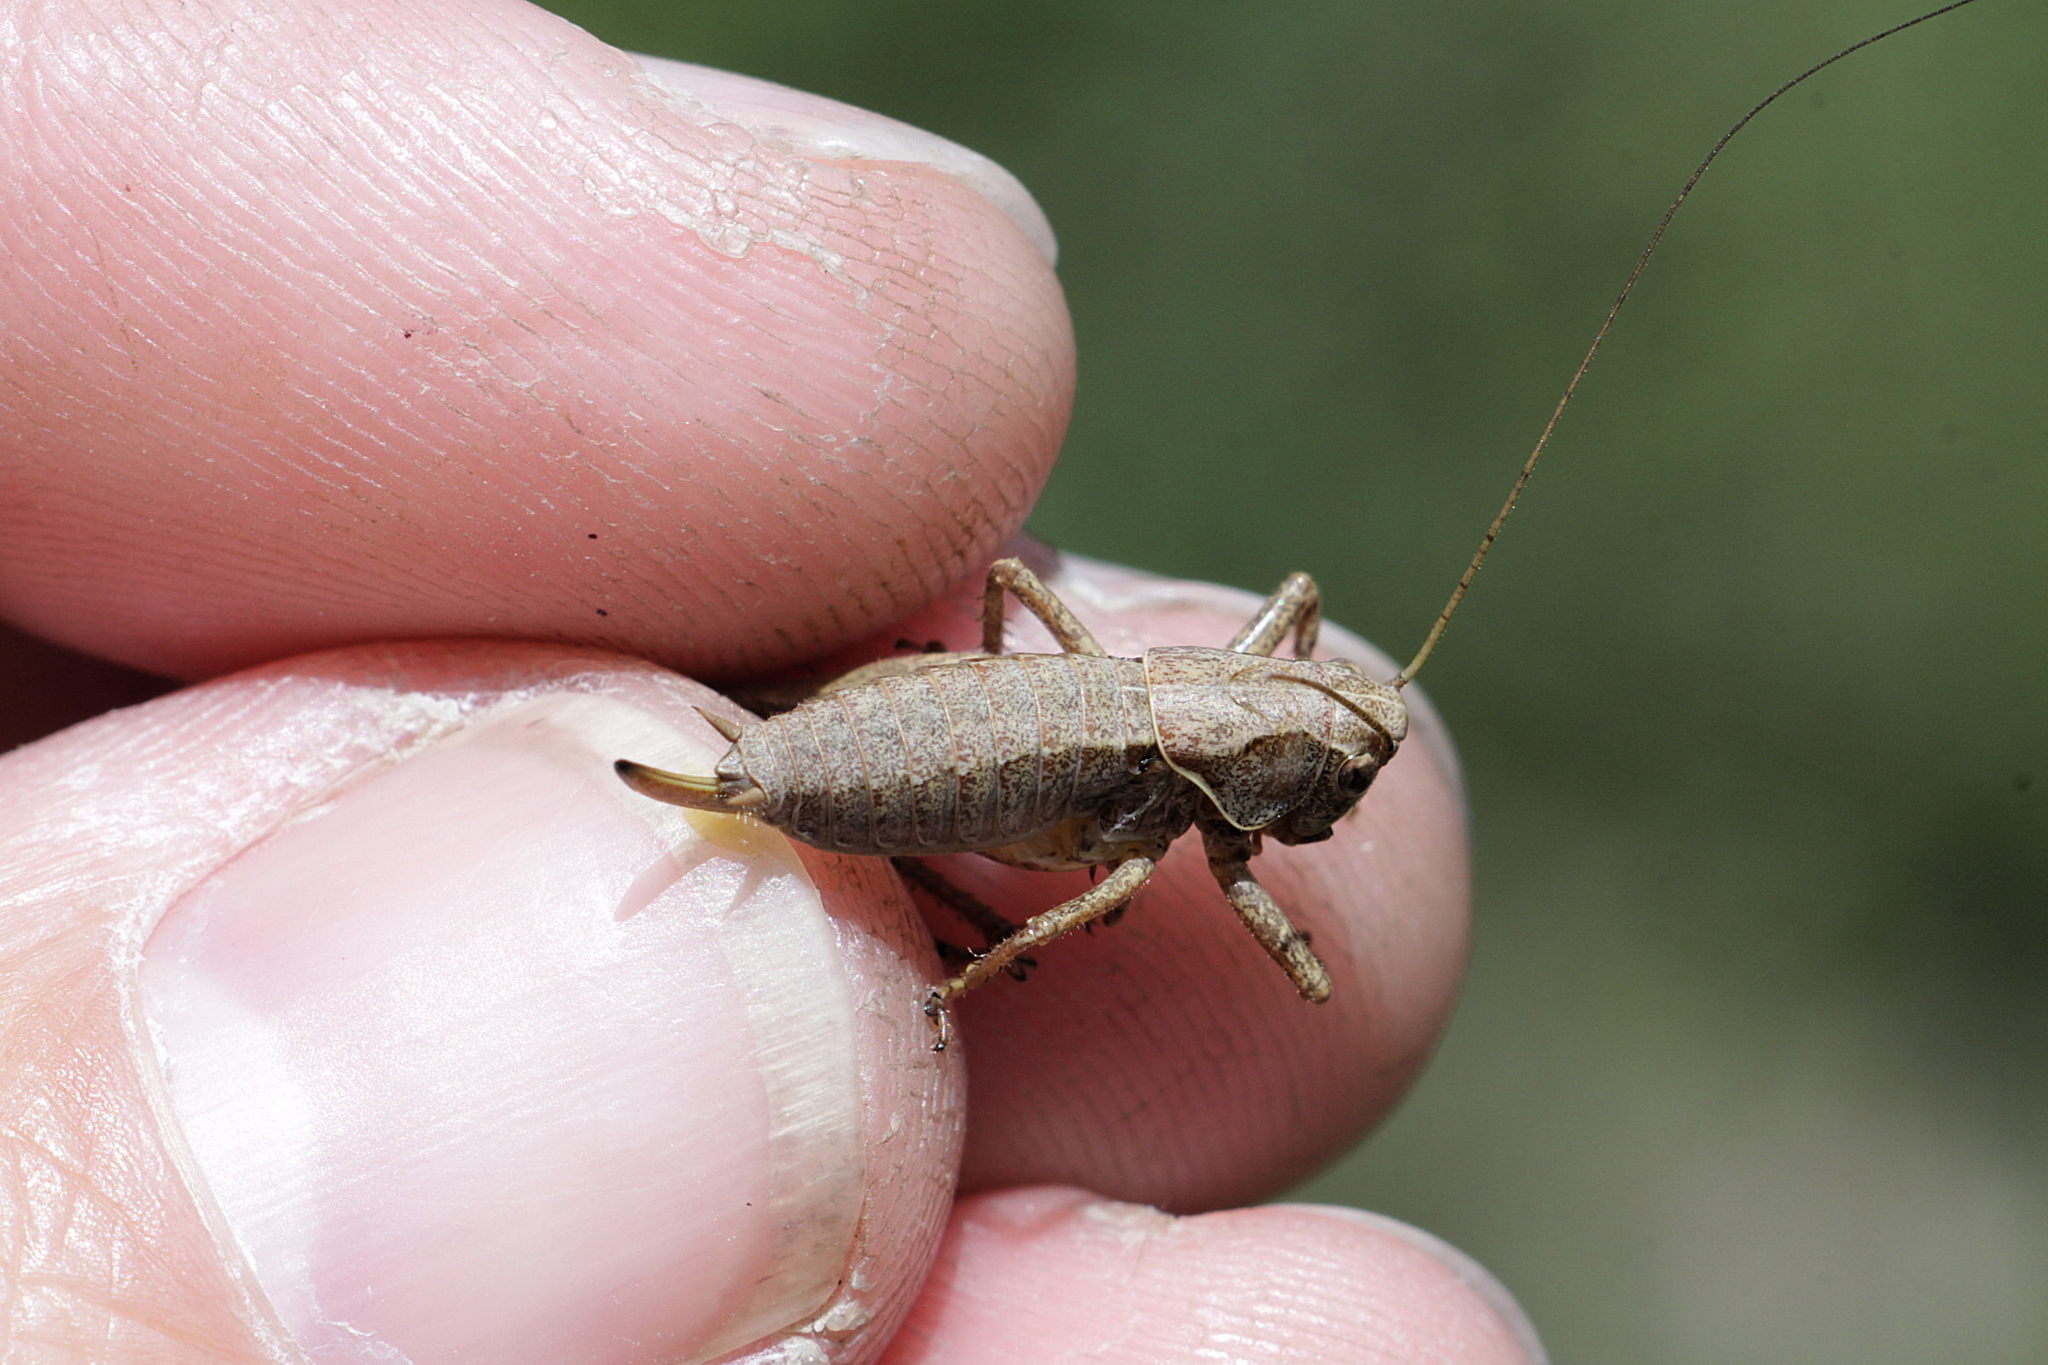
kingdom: Animalia
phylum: Arthropoda
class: Insecta
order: Orthoptera
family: Tettigoniidae
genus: Pholidoptera
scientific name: Pholidoptera griseoaptera
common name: Dark bush-cricket
